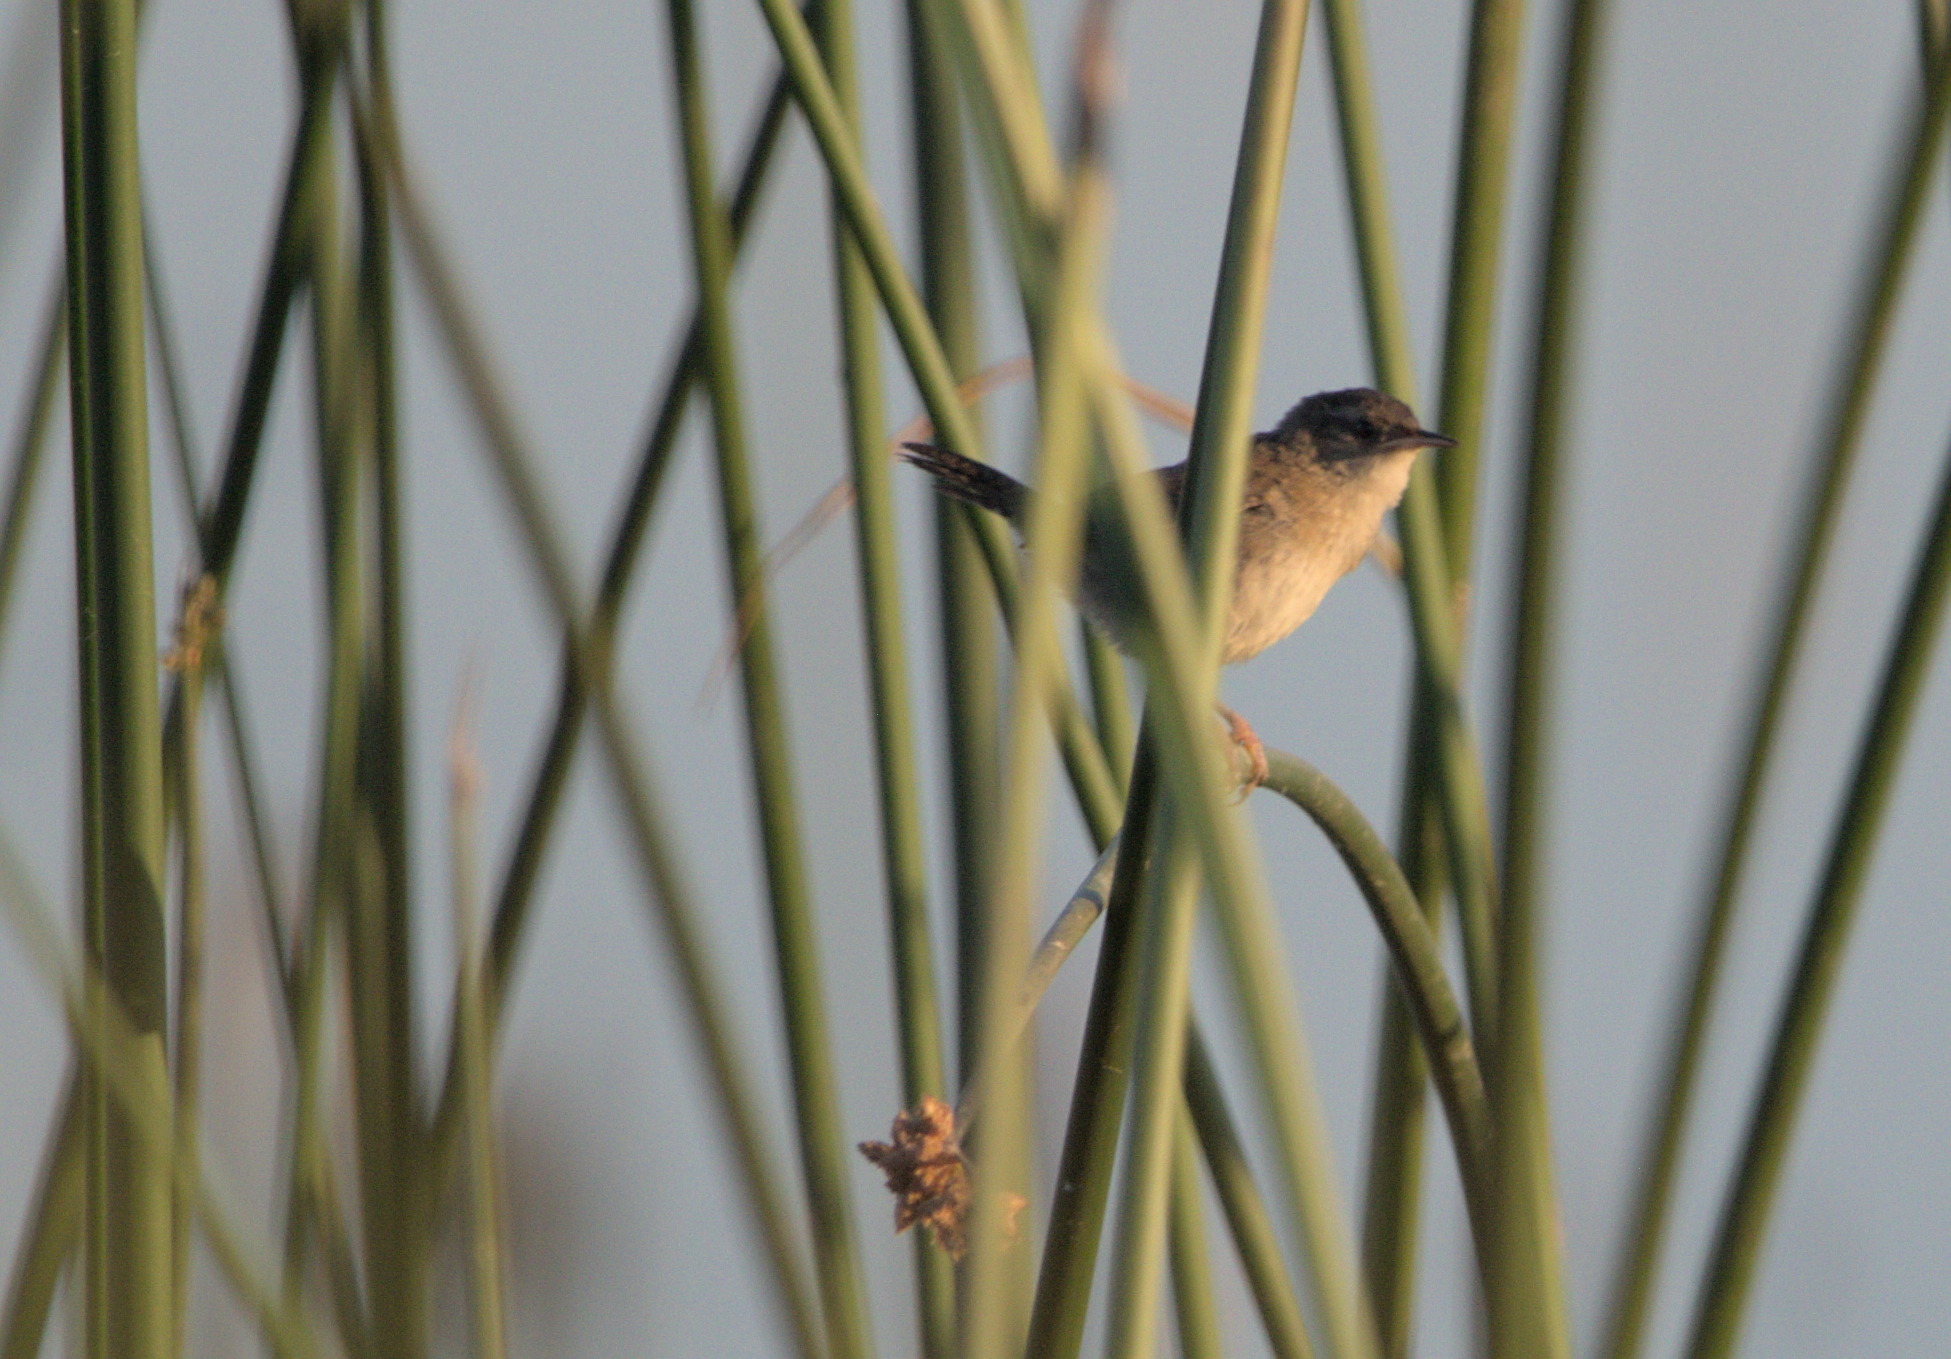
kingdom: Animalia
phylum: Chordata
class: Aves
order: Passeriformes
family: Troglodytidae
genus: Cistothorus
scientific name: Cistothorus palustris
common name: Marsh wren
